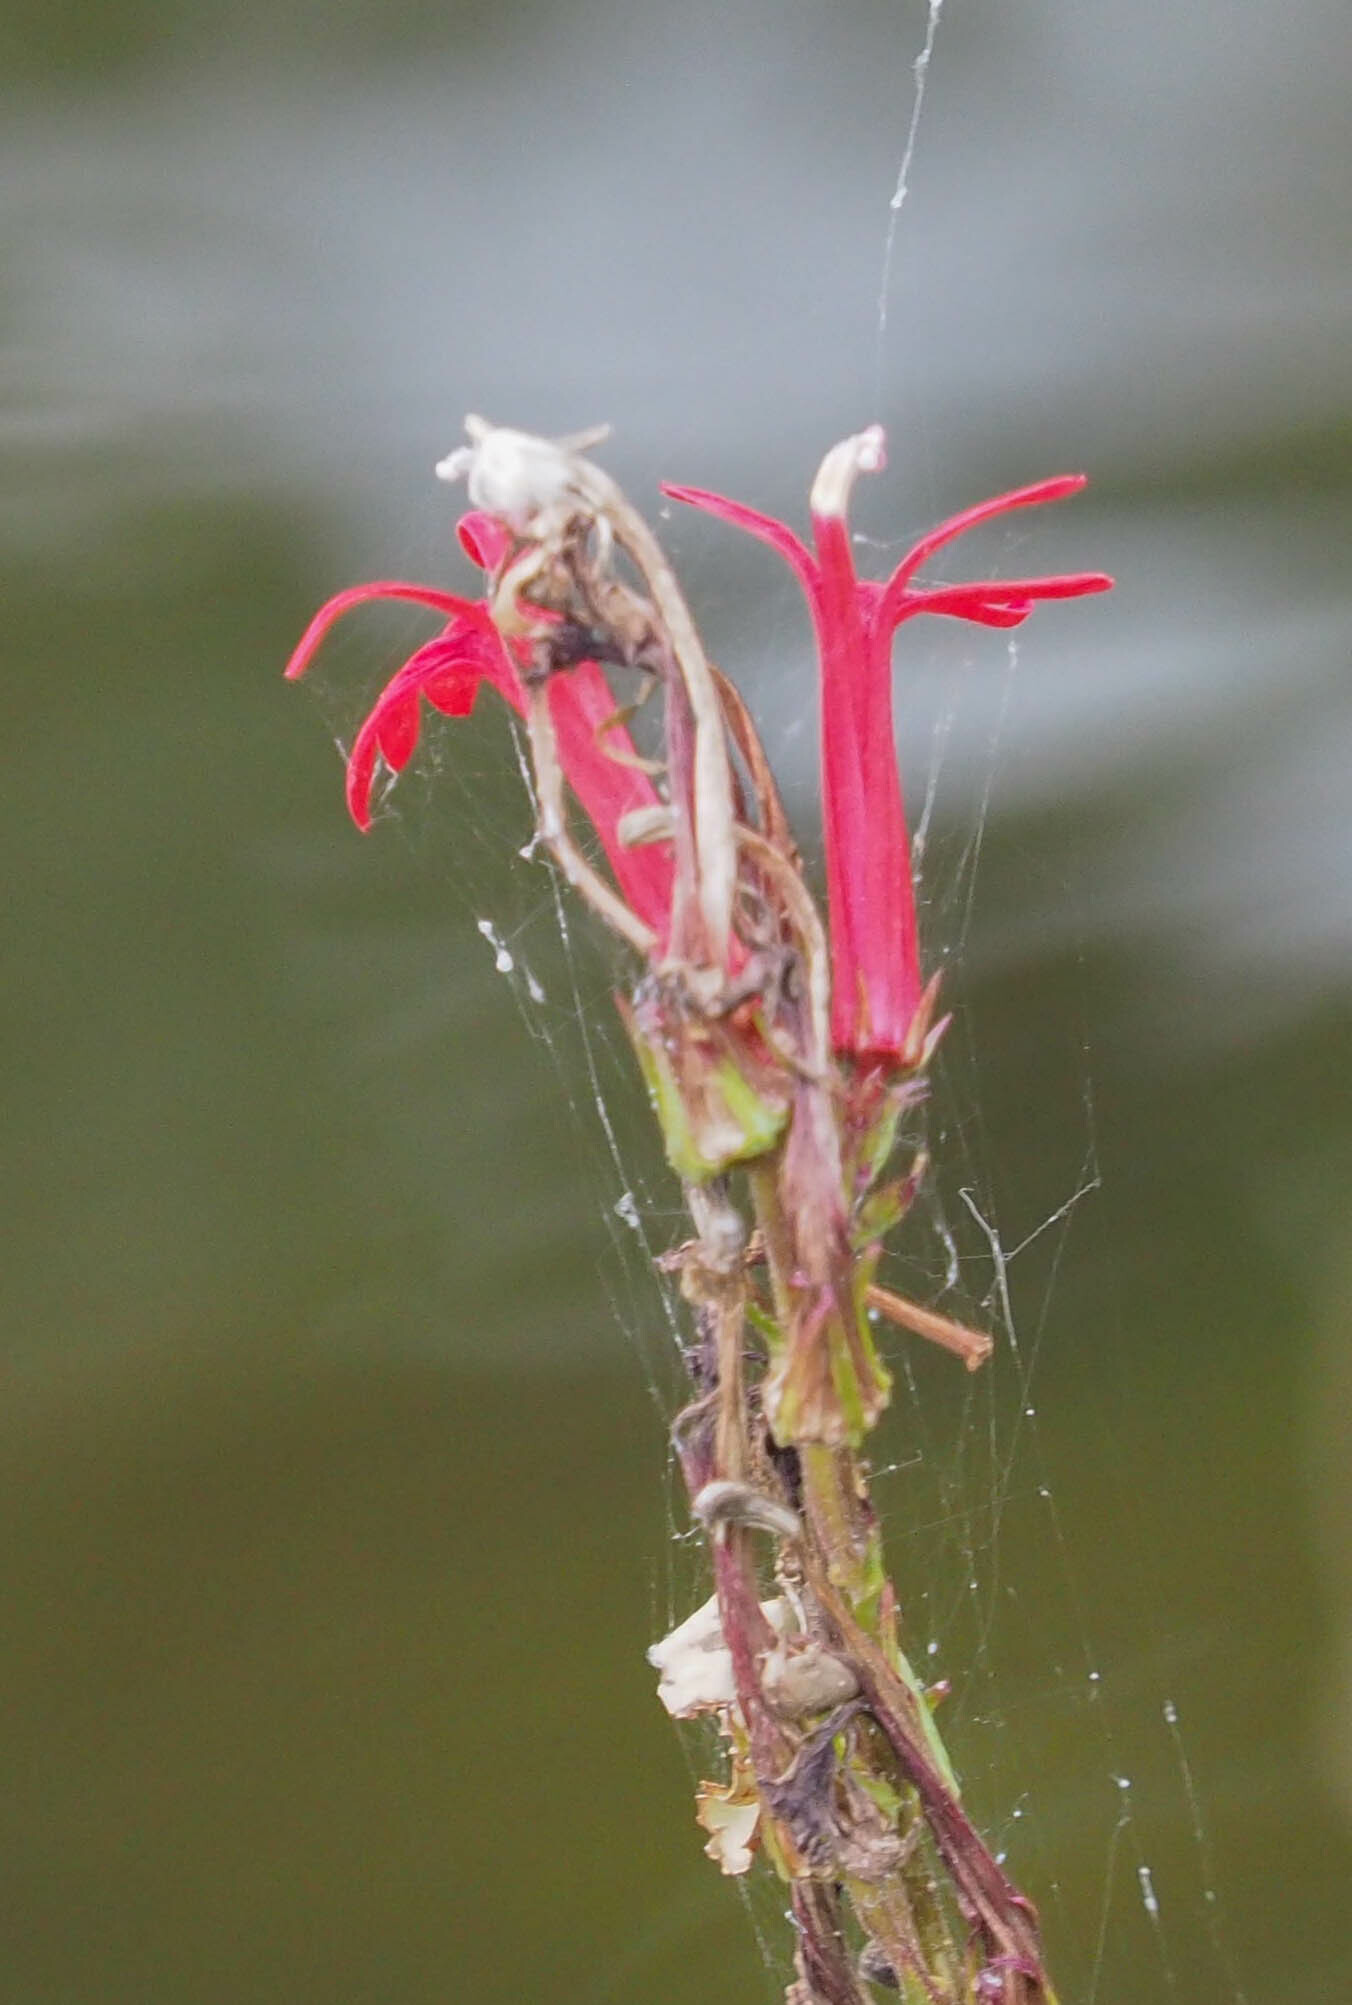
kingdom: Plantae
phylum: Tracheophyta
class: Magnoliopsida
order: Asterales
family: Campanulaceae
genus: Lobelia
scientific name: Lobelia cardinalis
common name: Cardinal flower
